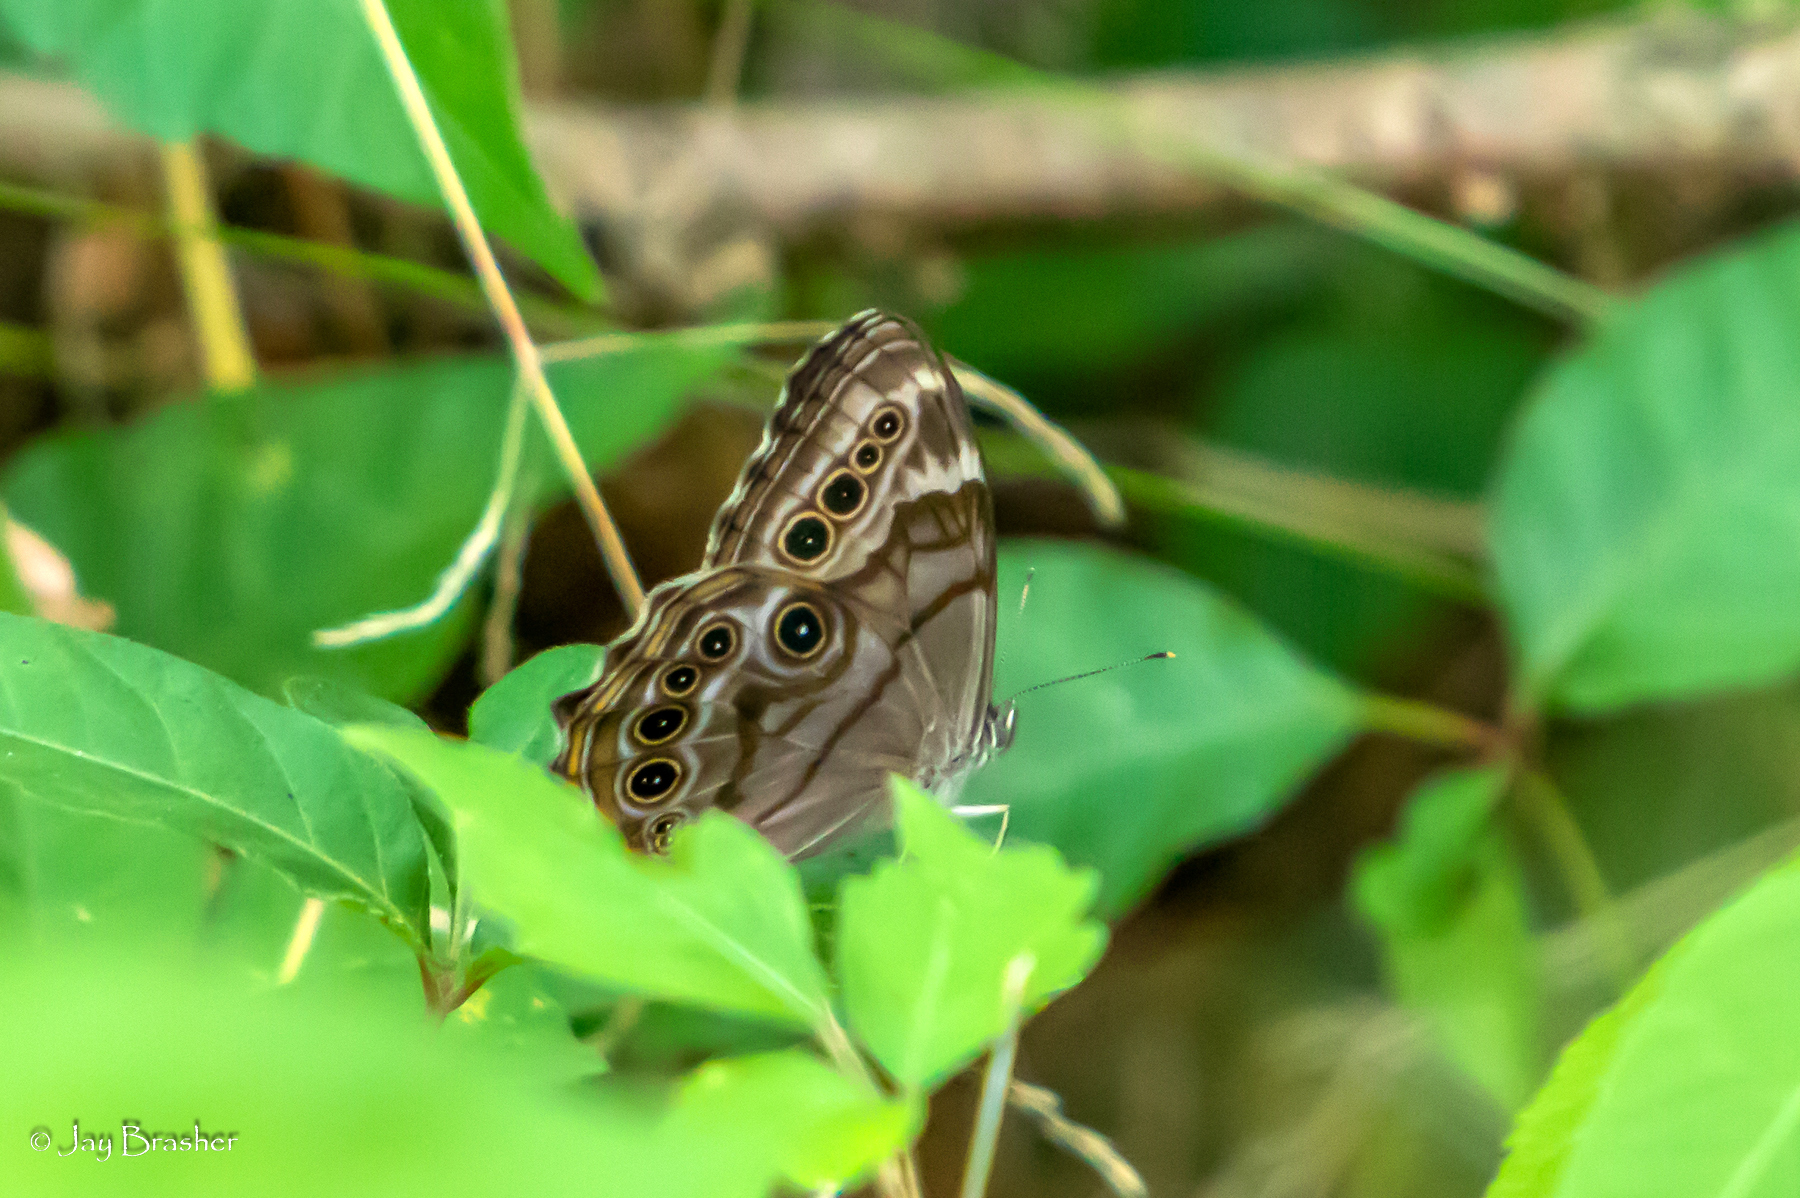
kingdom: Animalia
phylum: Arthropoda
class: Insecta
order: Lepidoptera
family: Nymphalidae
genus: Lethe
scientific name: Lethe anthedon
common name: Northern pearly-eye
